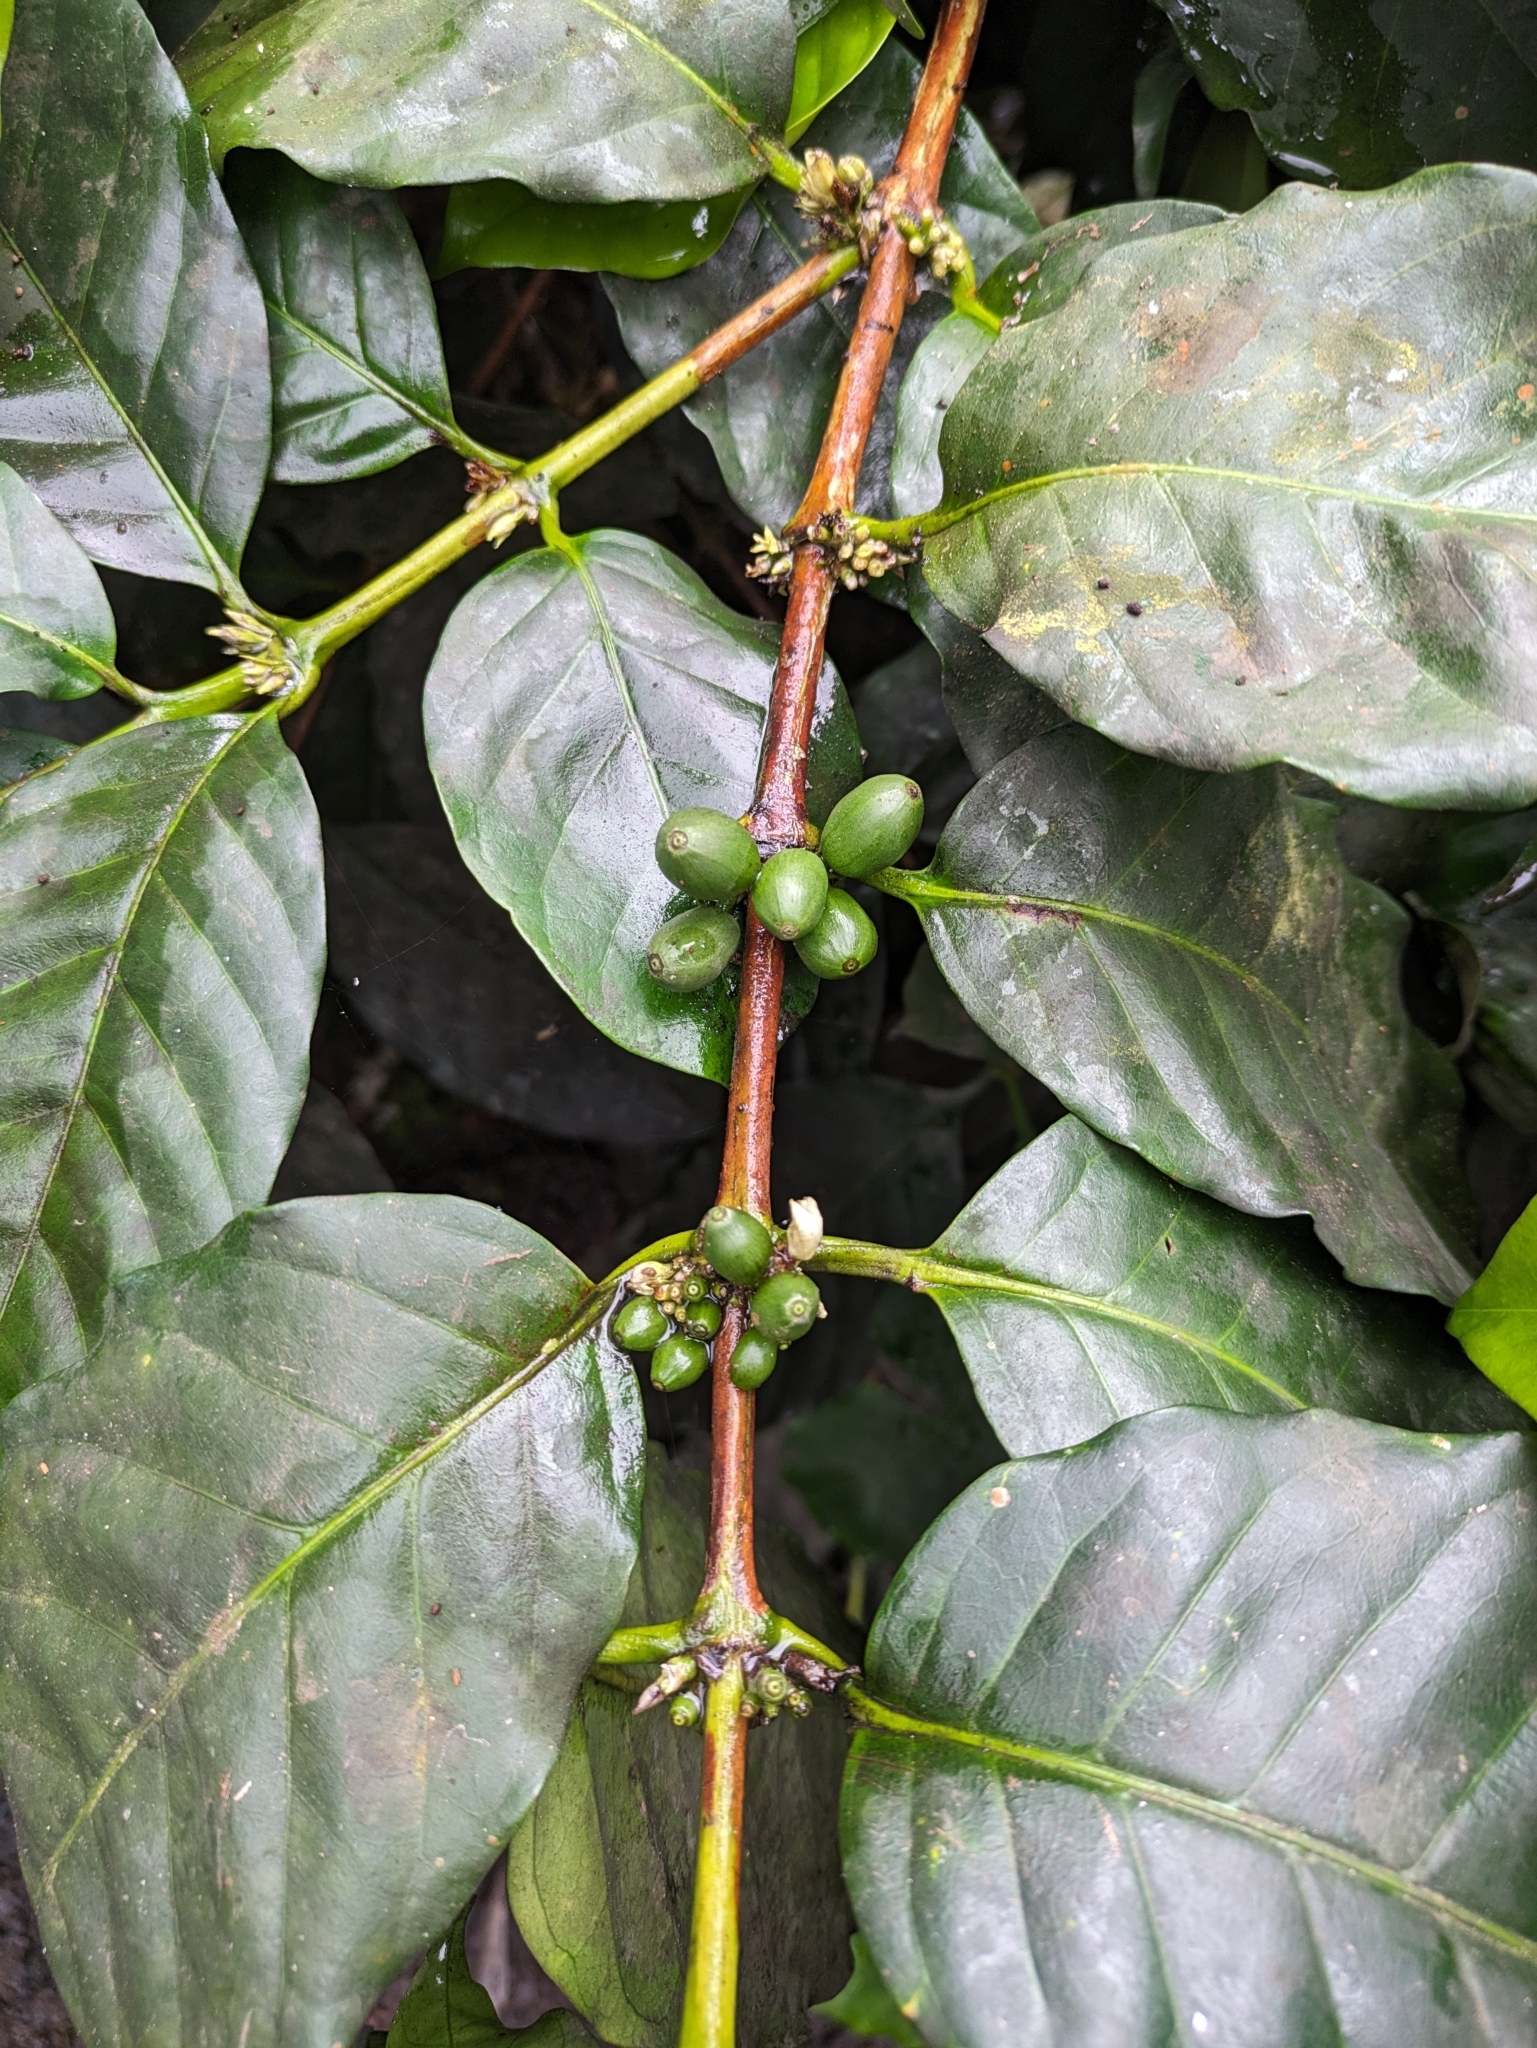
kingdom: Plantae
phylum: Tracheophyta
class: Magnoliopsida
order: Gentianales
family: Rubiaceae
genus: Coffea
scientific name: Coffea arabica
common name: Coffee
